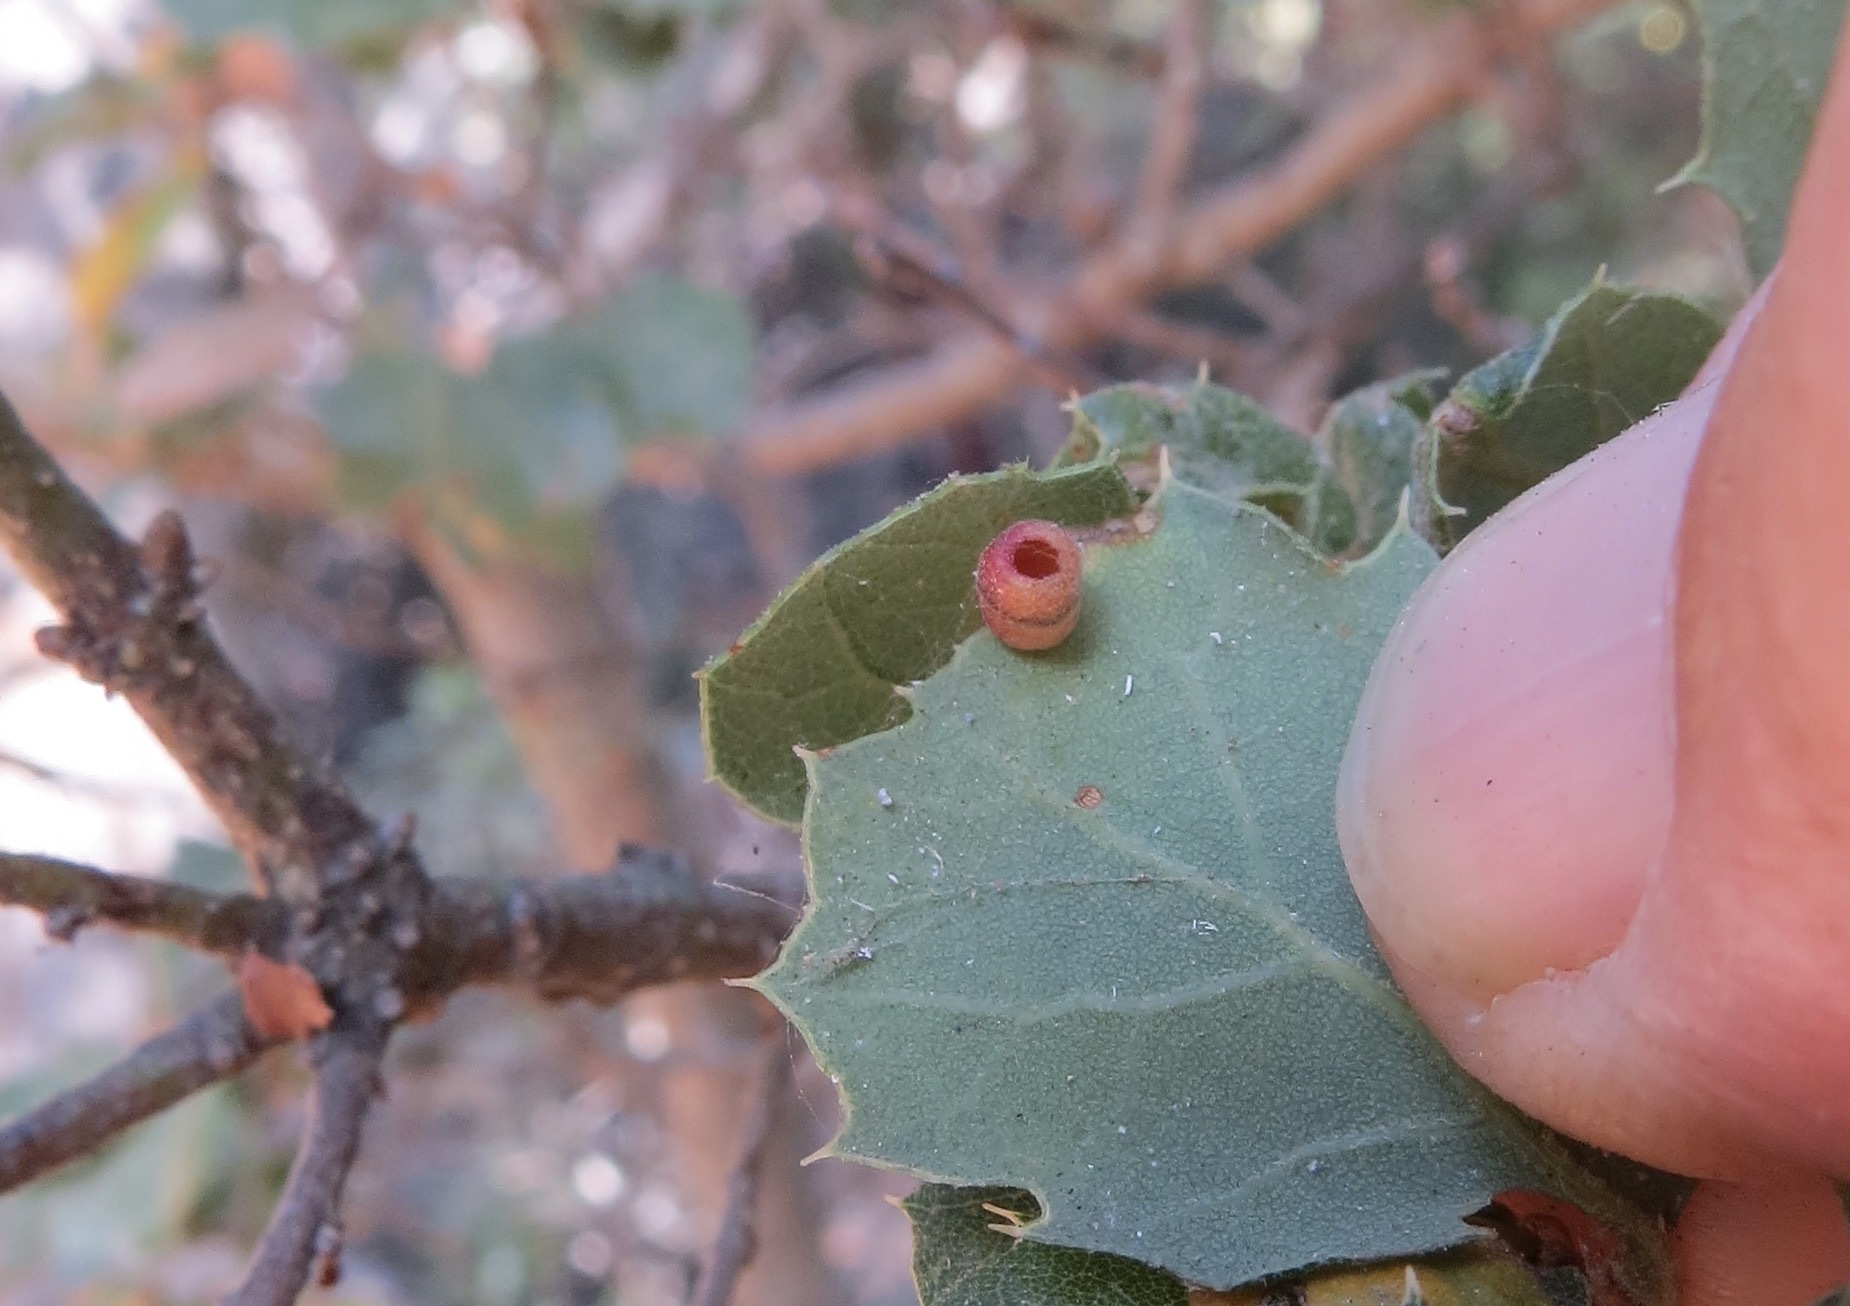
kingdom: Animalia
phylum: Arthropoda
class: Insecta
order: Hymenoptera
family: Cynipidae
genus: Phylloteras
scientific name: Phylloteras
